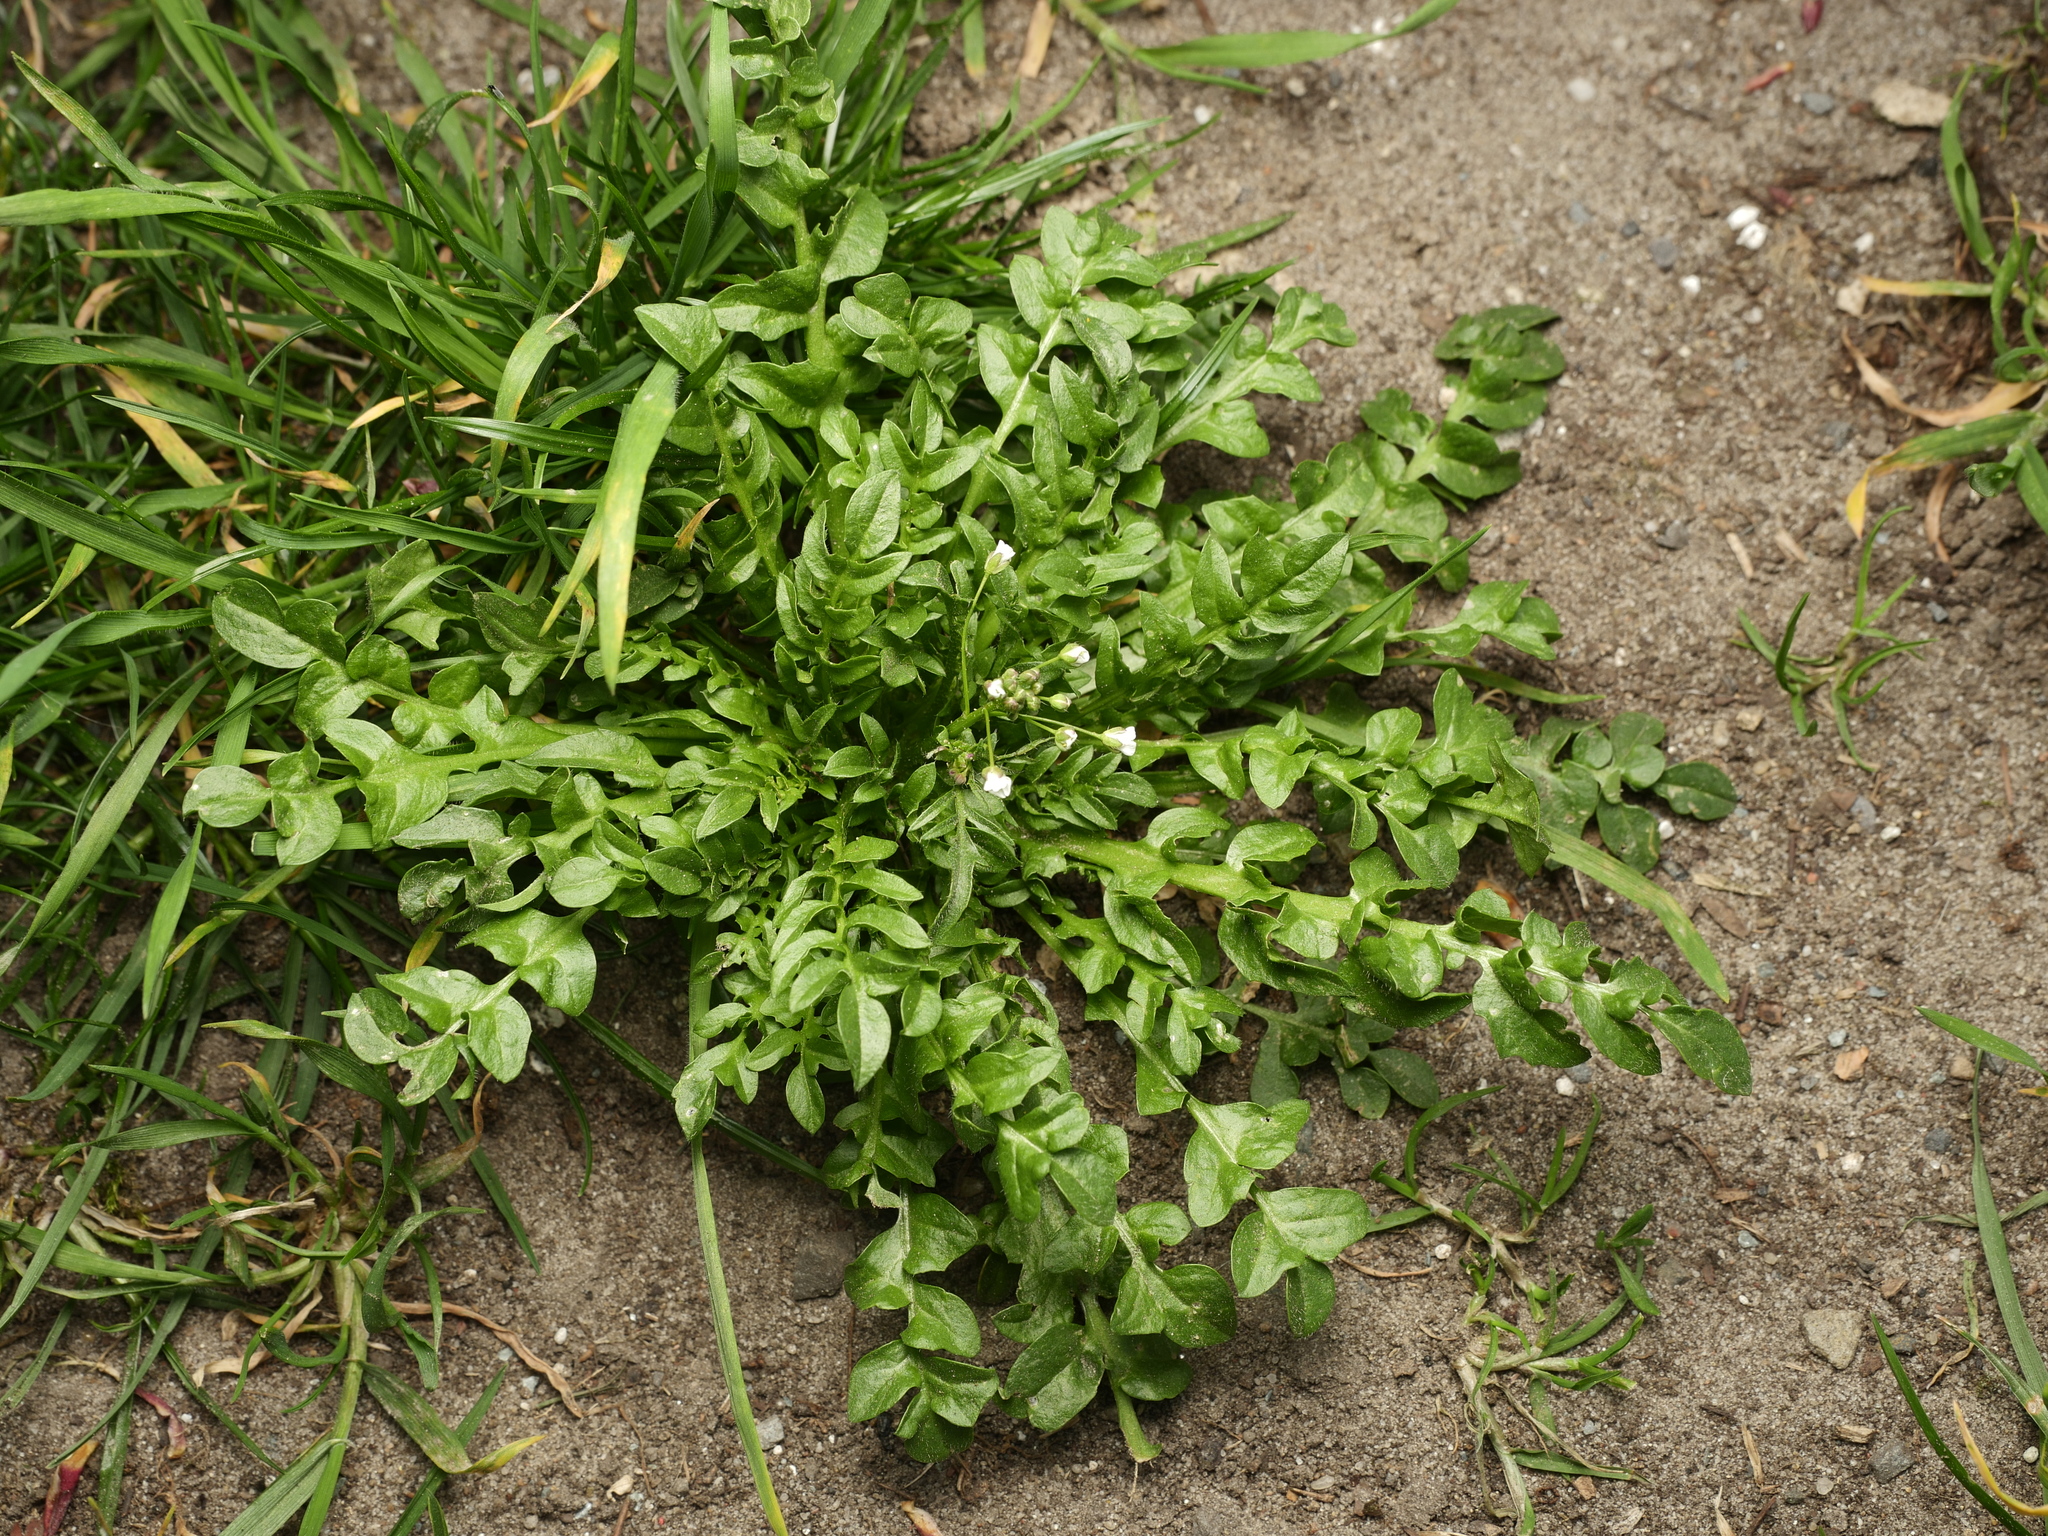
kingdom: Plantae
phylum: Tracheophyta
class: Magnoliopsida
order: Brassicales
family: Brassicaceae
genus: Capsella
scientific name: Capsella bursa-pastoris
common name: Shepherd's purse
